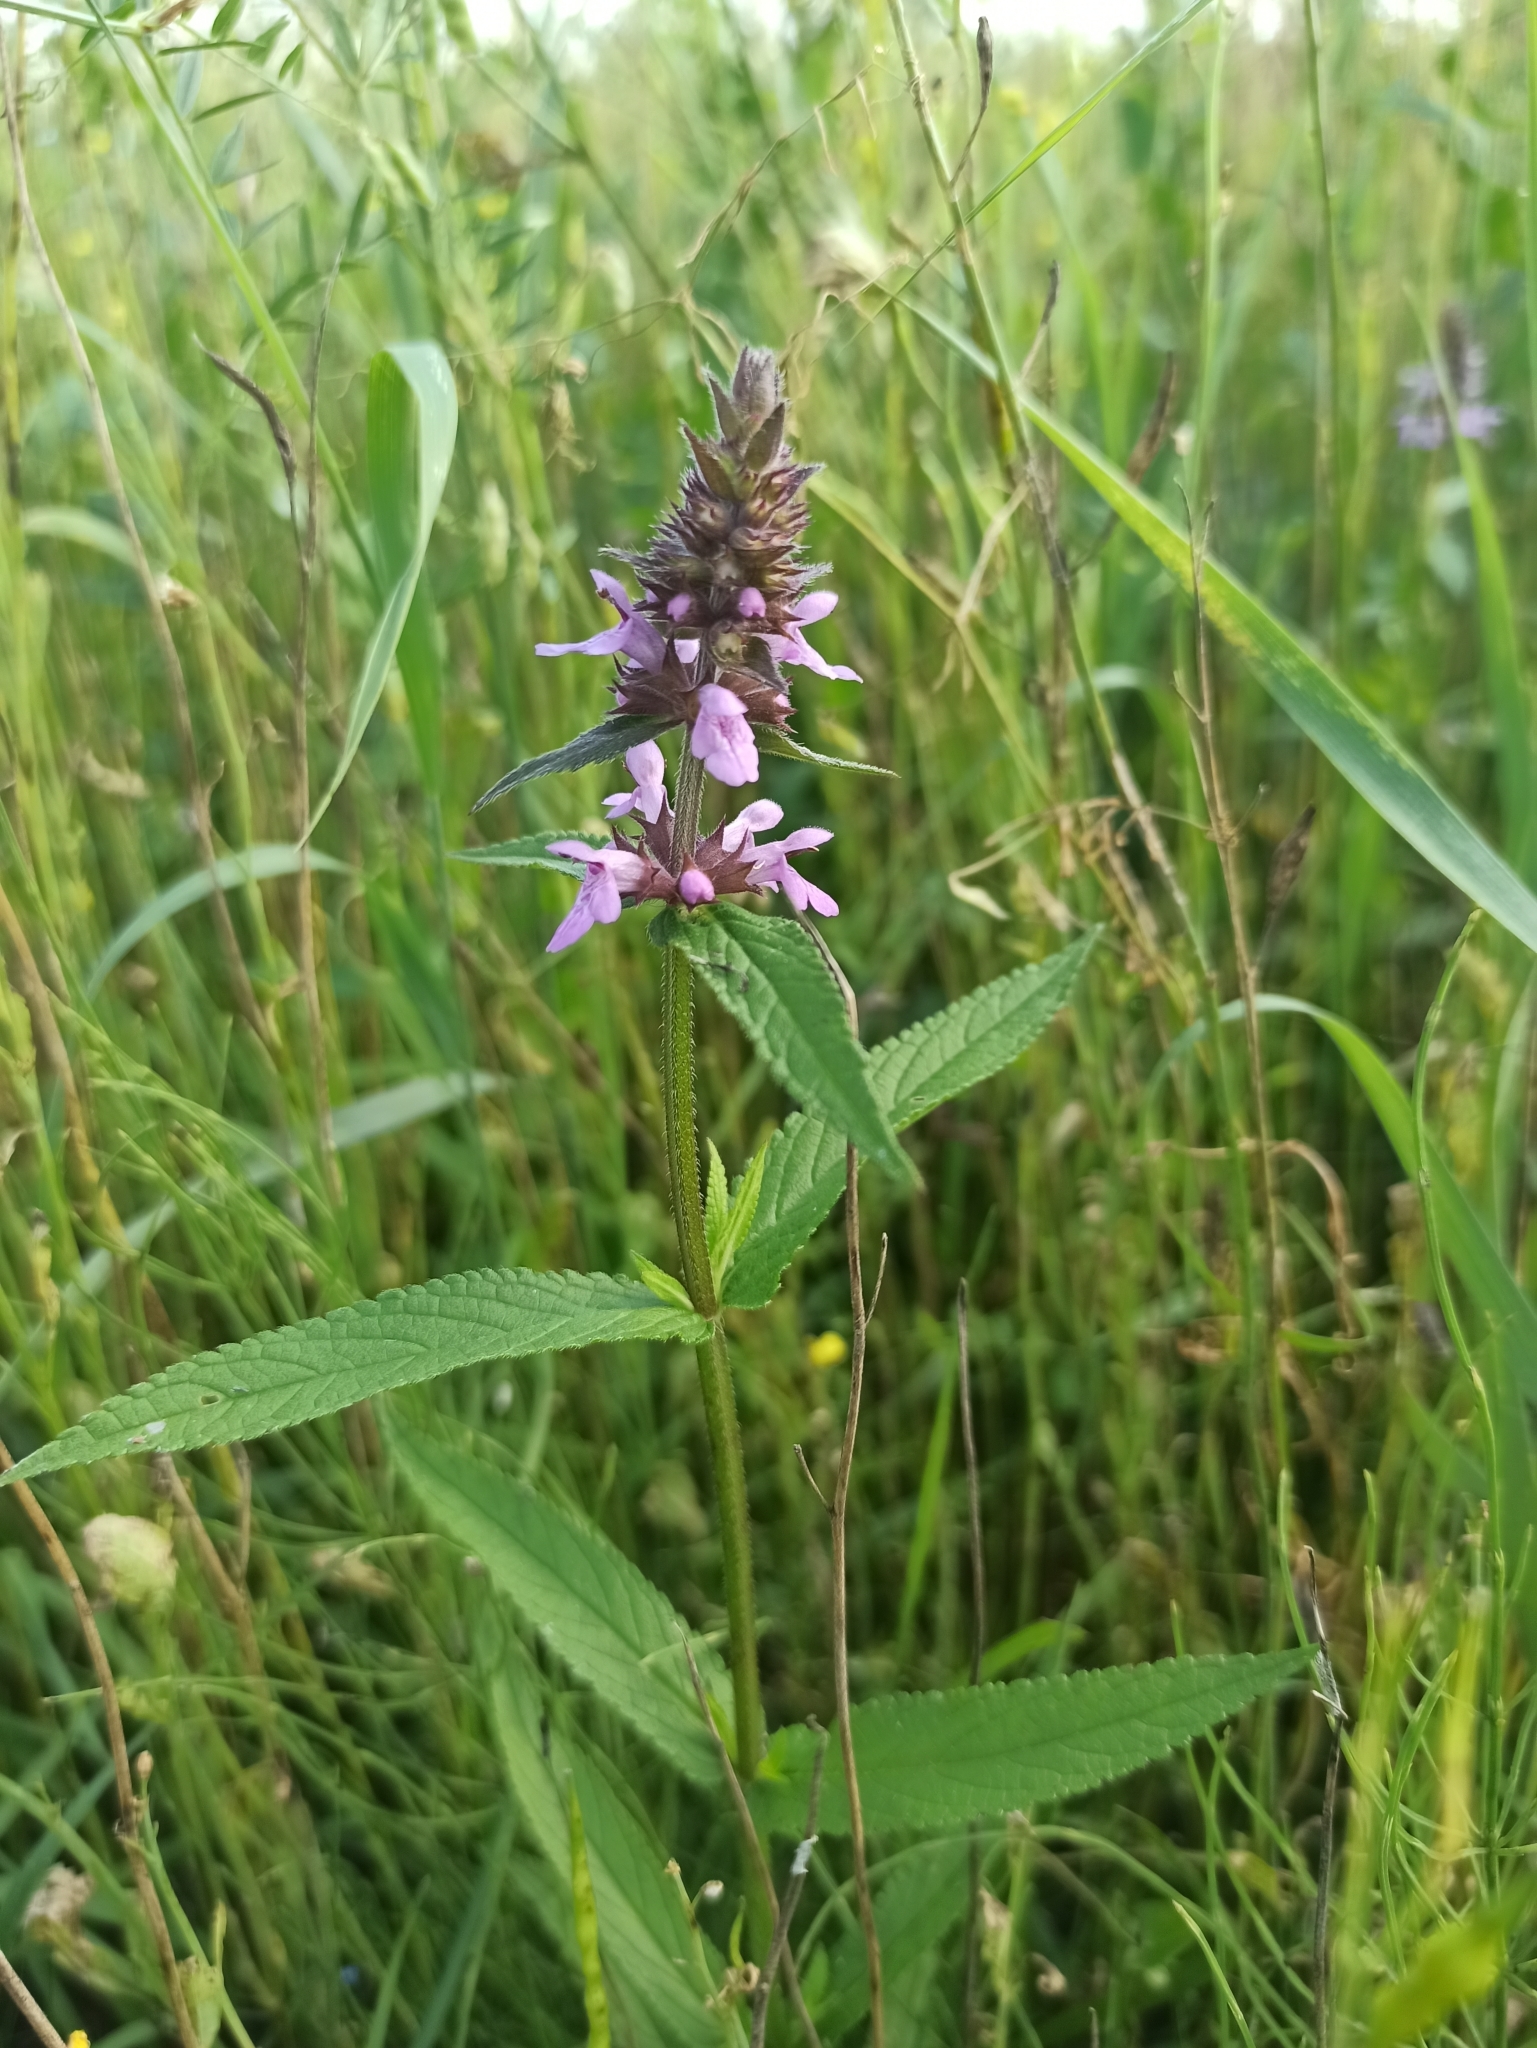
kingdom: Plantae
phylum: Tracheophyta
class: Magnoliopsida
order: Lamiales
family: Lamiaceae
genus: Stachys
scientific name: Stachys palustris
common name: Marsh woundwort
